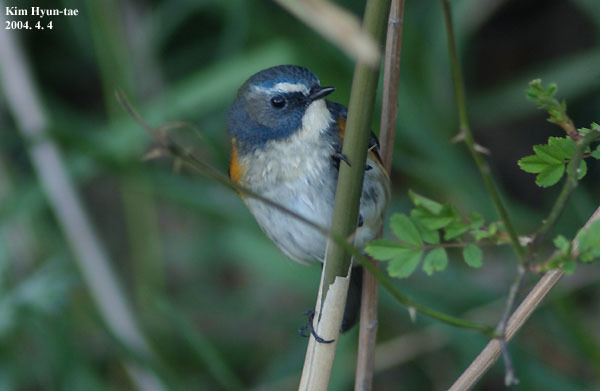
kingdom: Animalia
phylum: Chordata
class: Aves
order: Passeriformes
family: Muscicapidae
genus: Tarsiger
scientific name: Tarsiger cyanurus
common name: Red-flanked bluetail
